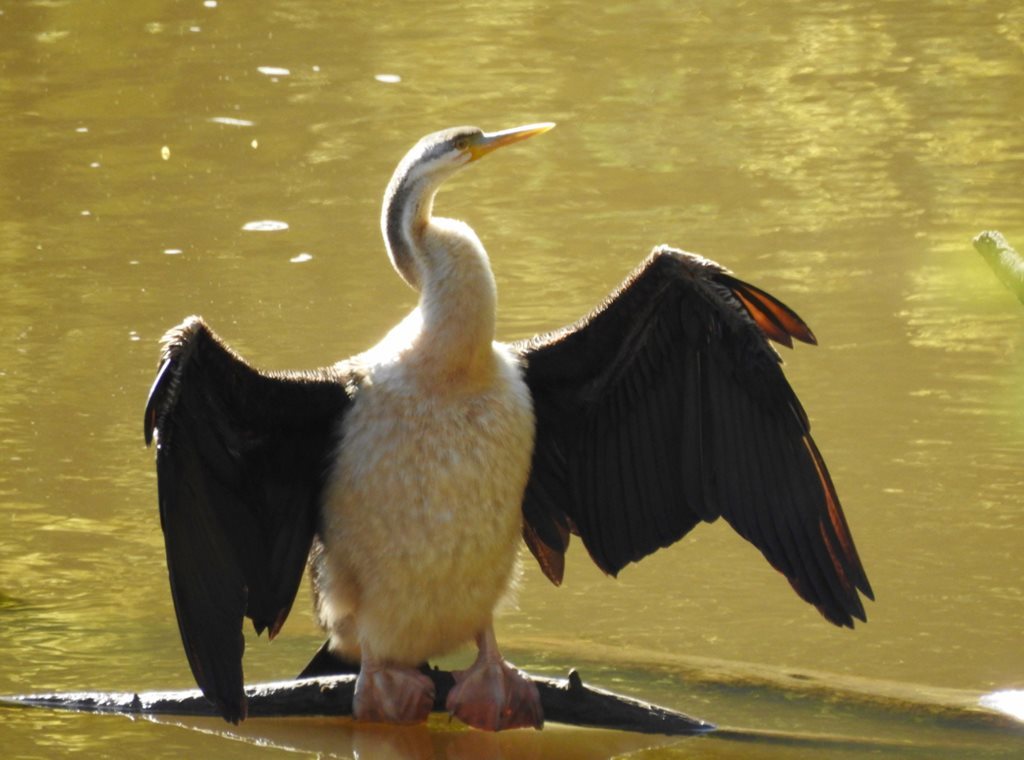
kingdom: Animalia
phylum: Chordata
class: Aves
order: Suliformes
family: Anhingidae
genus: Anhinga
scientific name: Anhinga novaehollandiae
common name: Australasian darter
